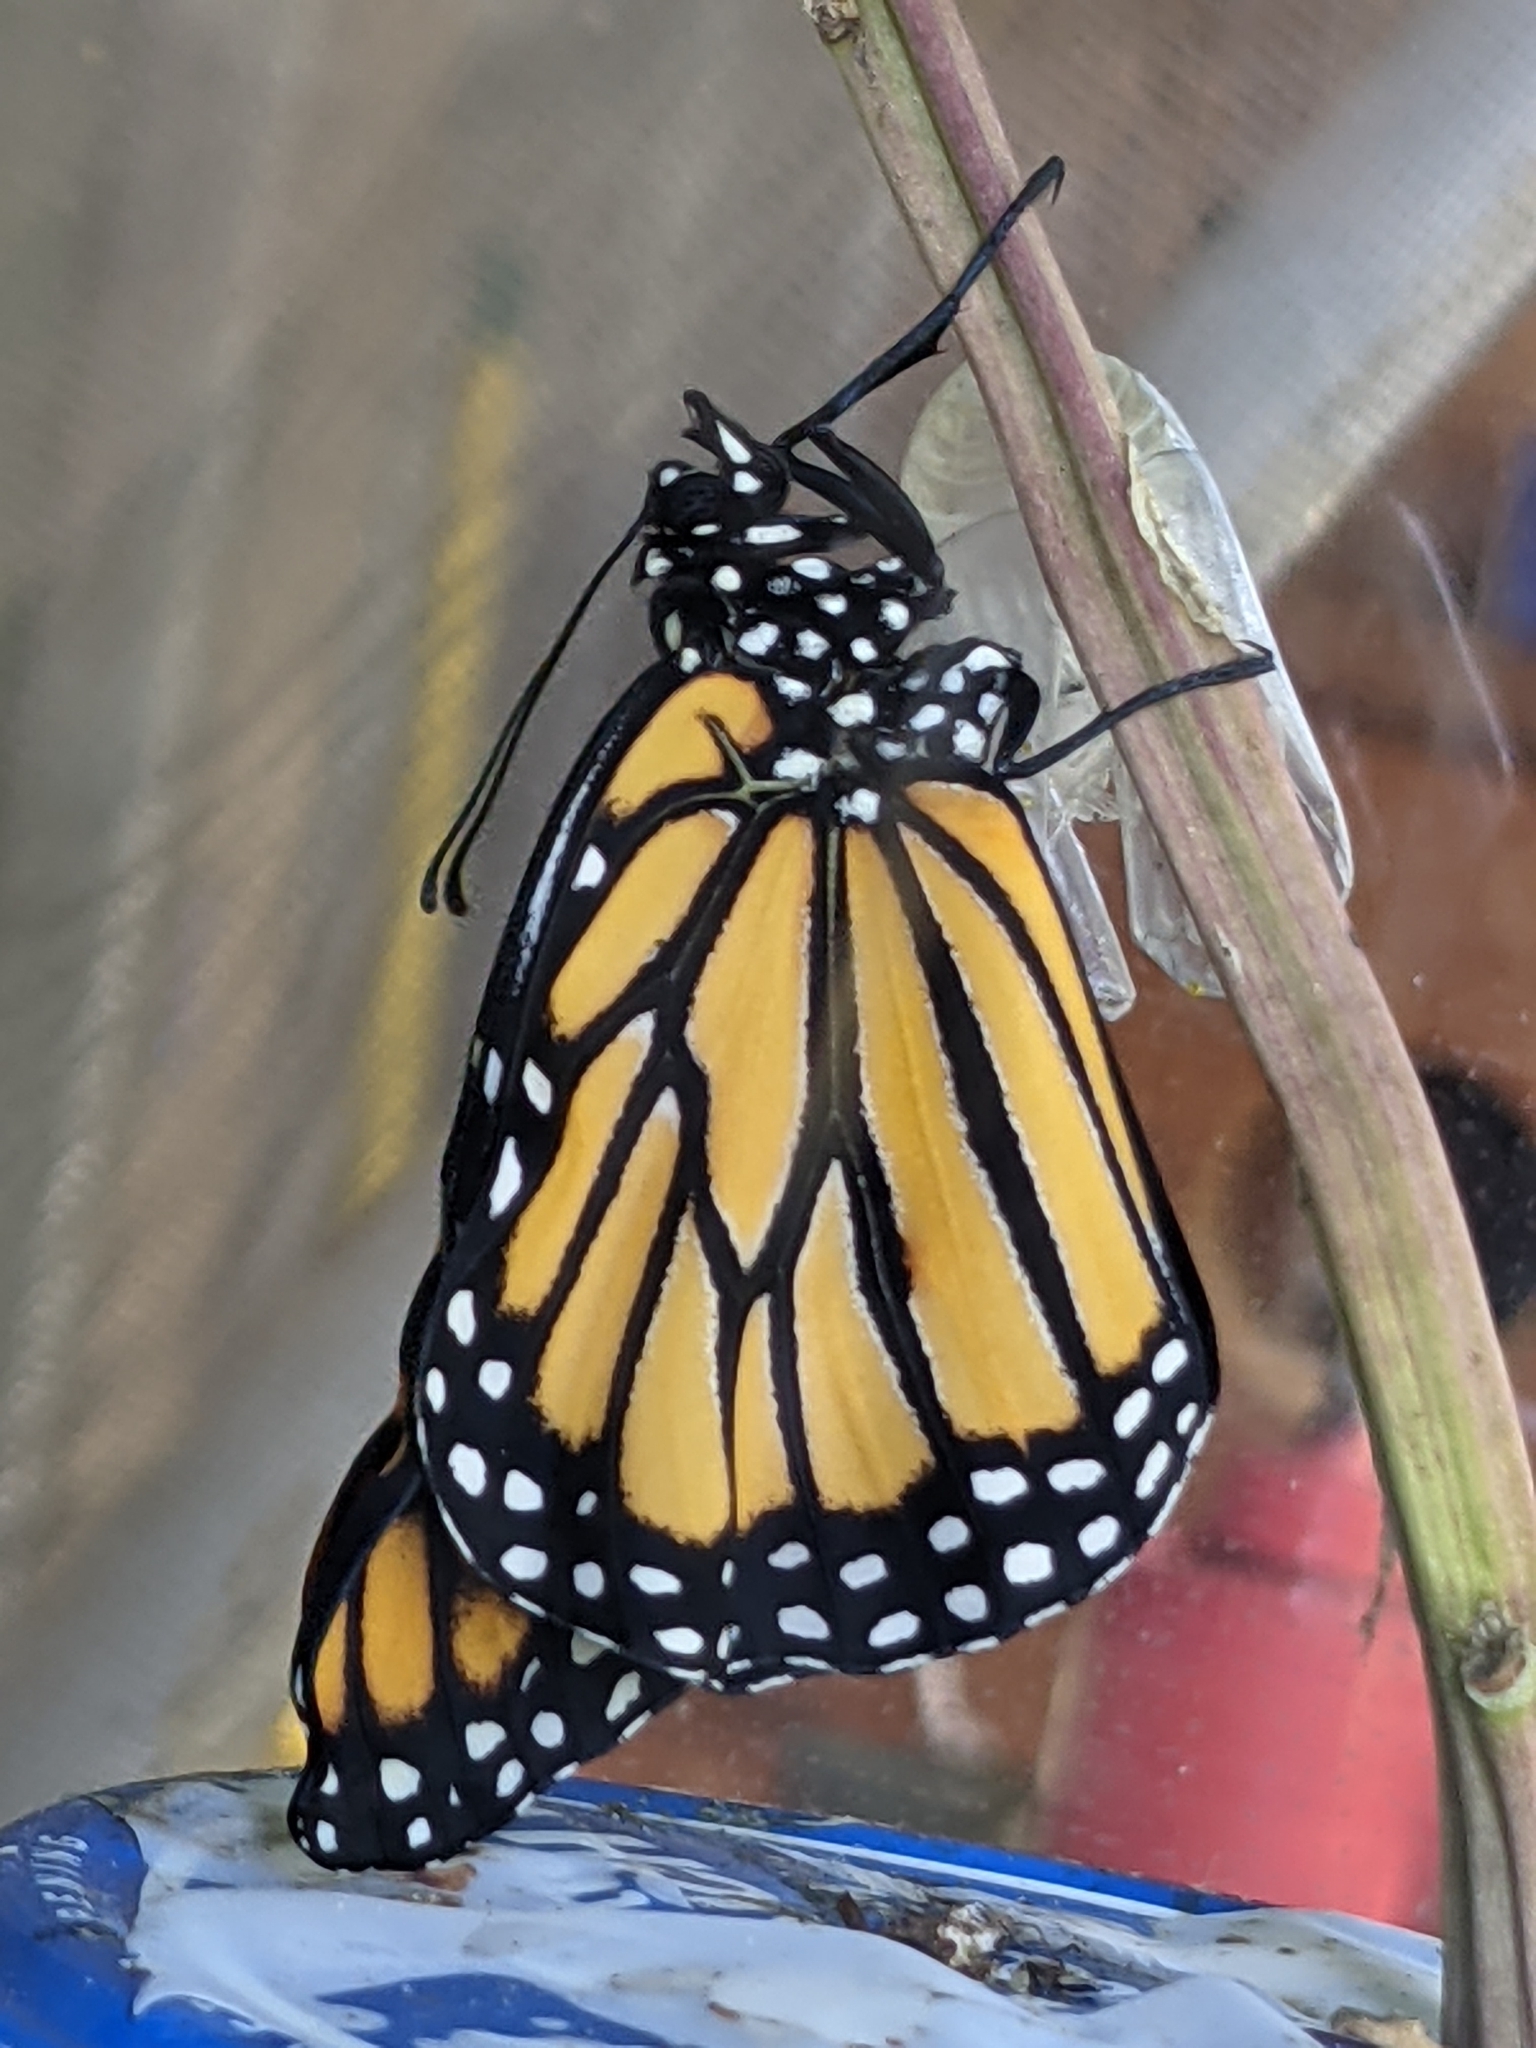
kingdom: Animalia
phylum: Arthropoda
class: Insecta
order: Lepidoptera
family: Nymphalidae
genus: Danaus
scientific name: Danaus plexippus
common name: Monarch
